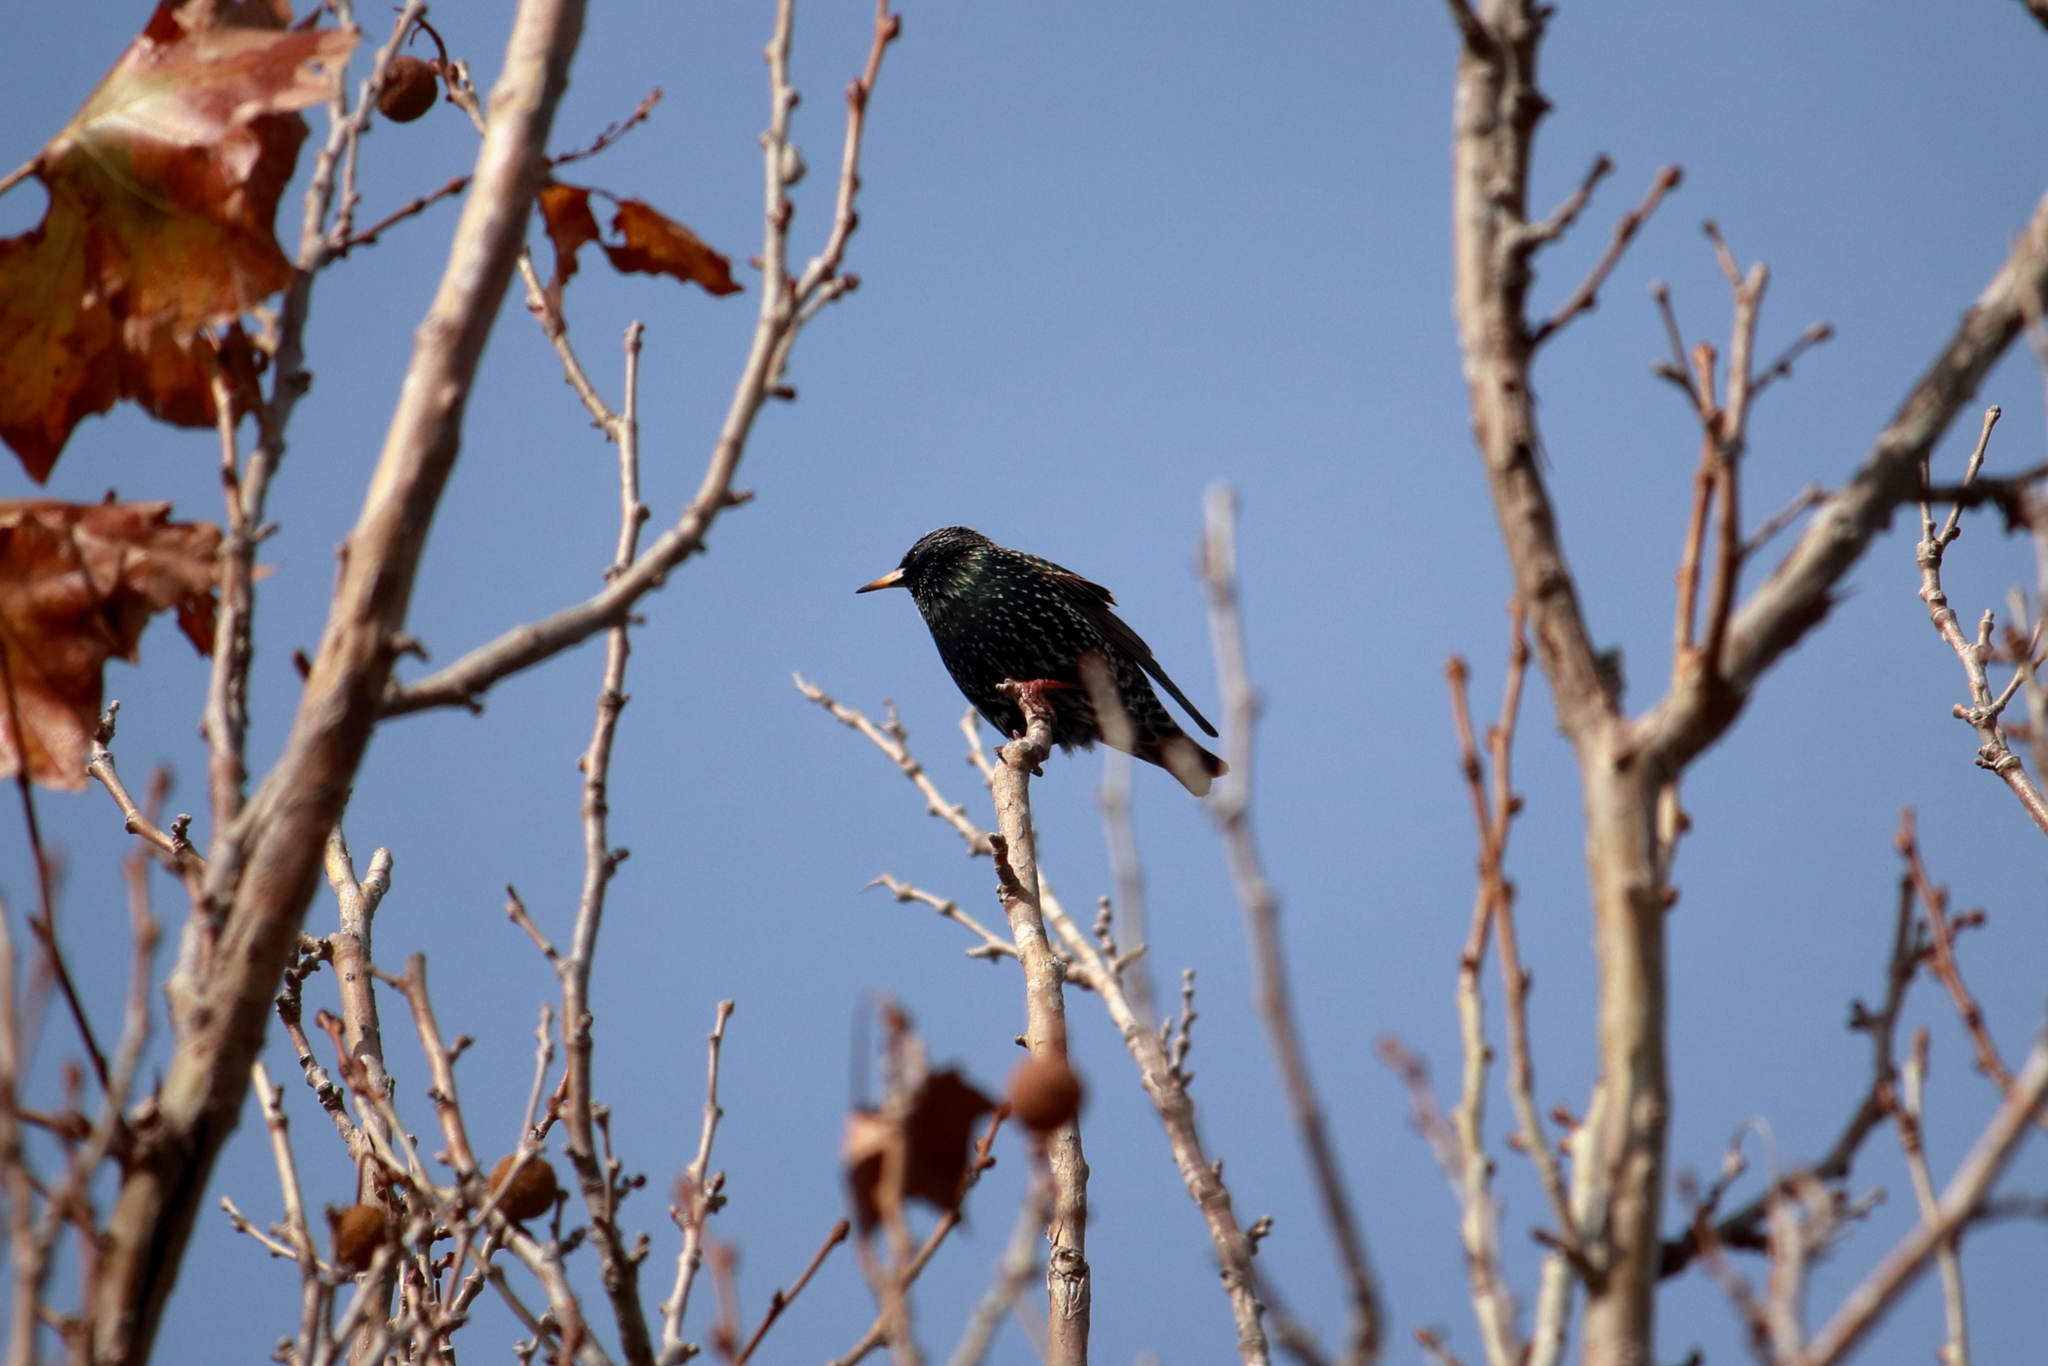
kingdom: Animalia
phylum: Chordata
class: Aves
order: Passeriformes
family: Sturnidae
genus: Sturnus
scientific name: Sturnus vulgaris
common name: Common starling
